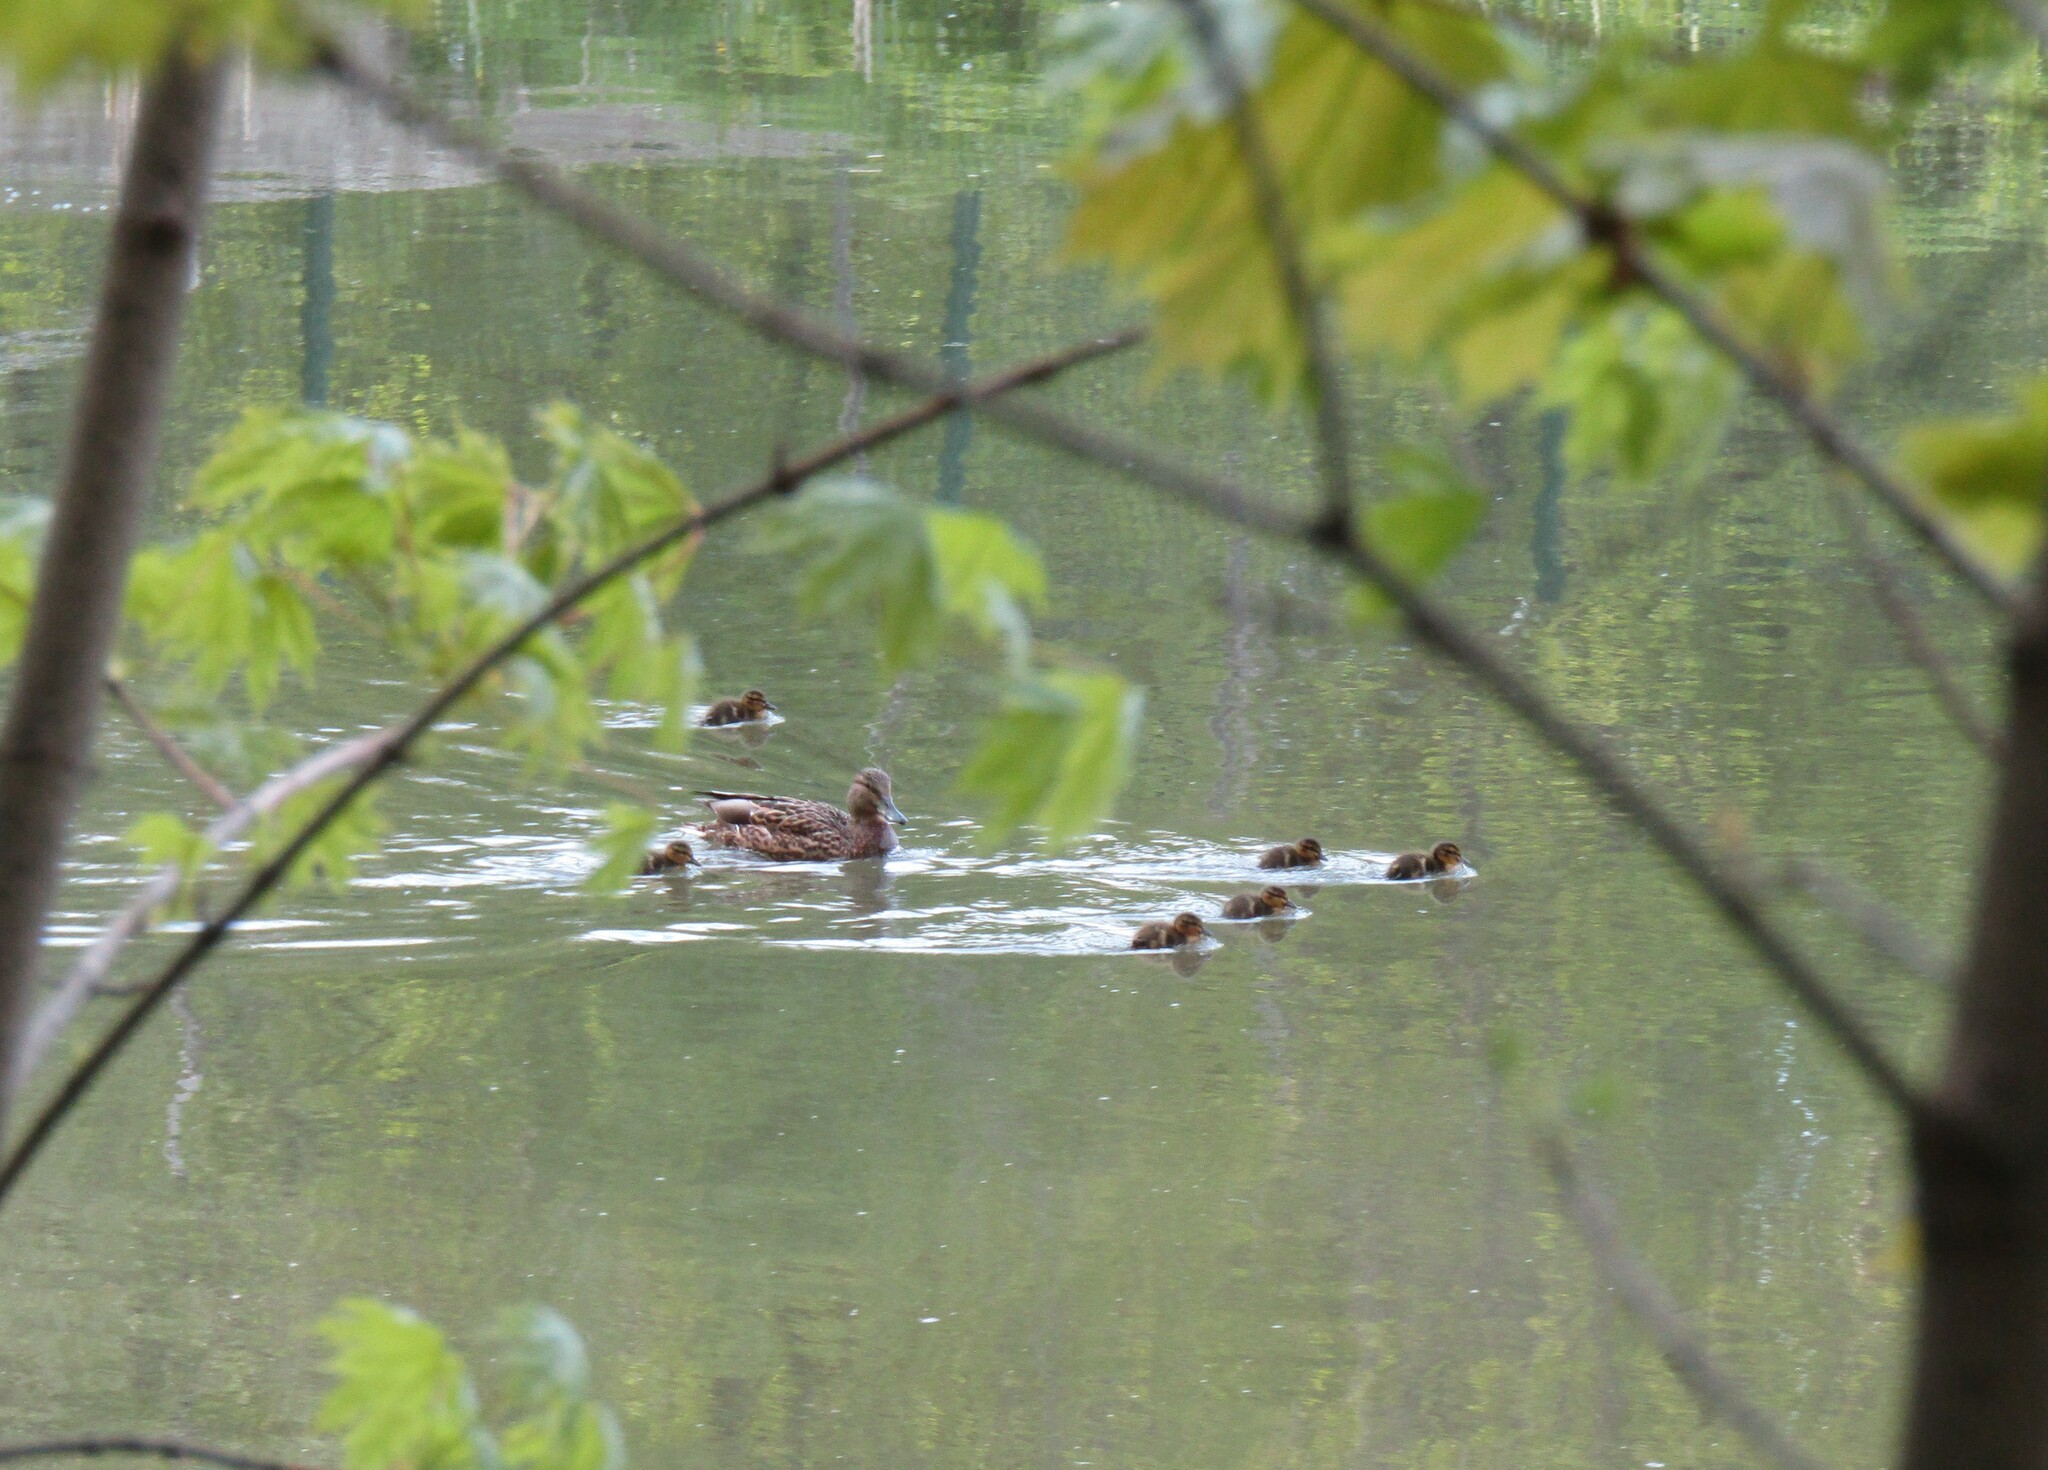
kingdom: Animalia
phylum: Chordata
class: Aves
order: Anseriformes
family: Anatidae
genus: Anas
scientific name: Anas platyrhynchos
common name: Mallard
